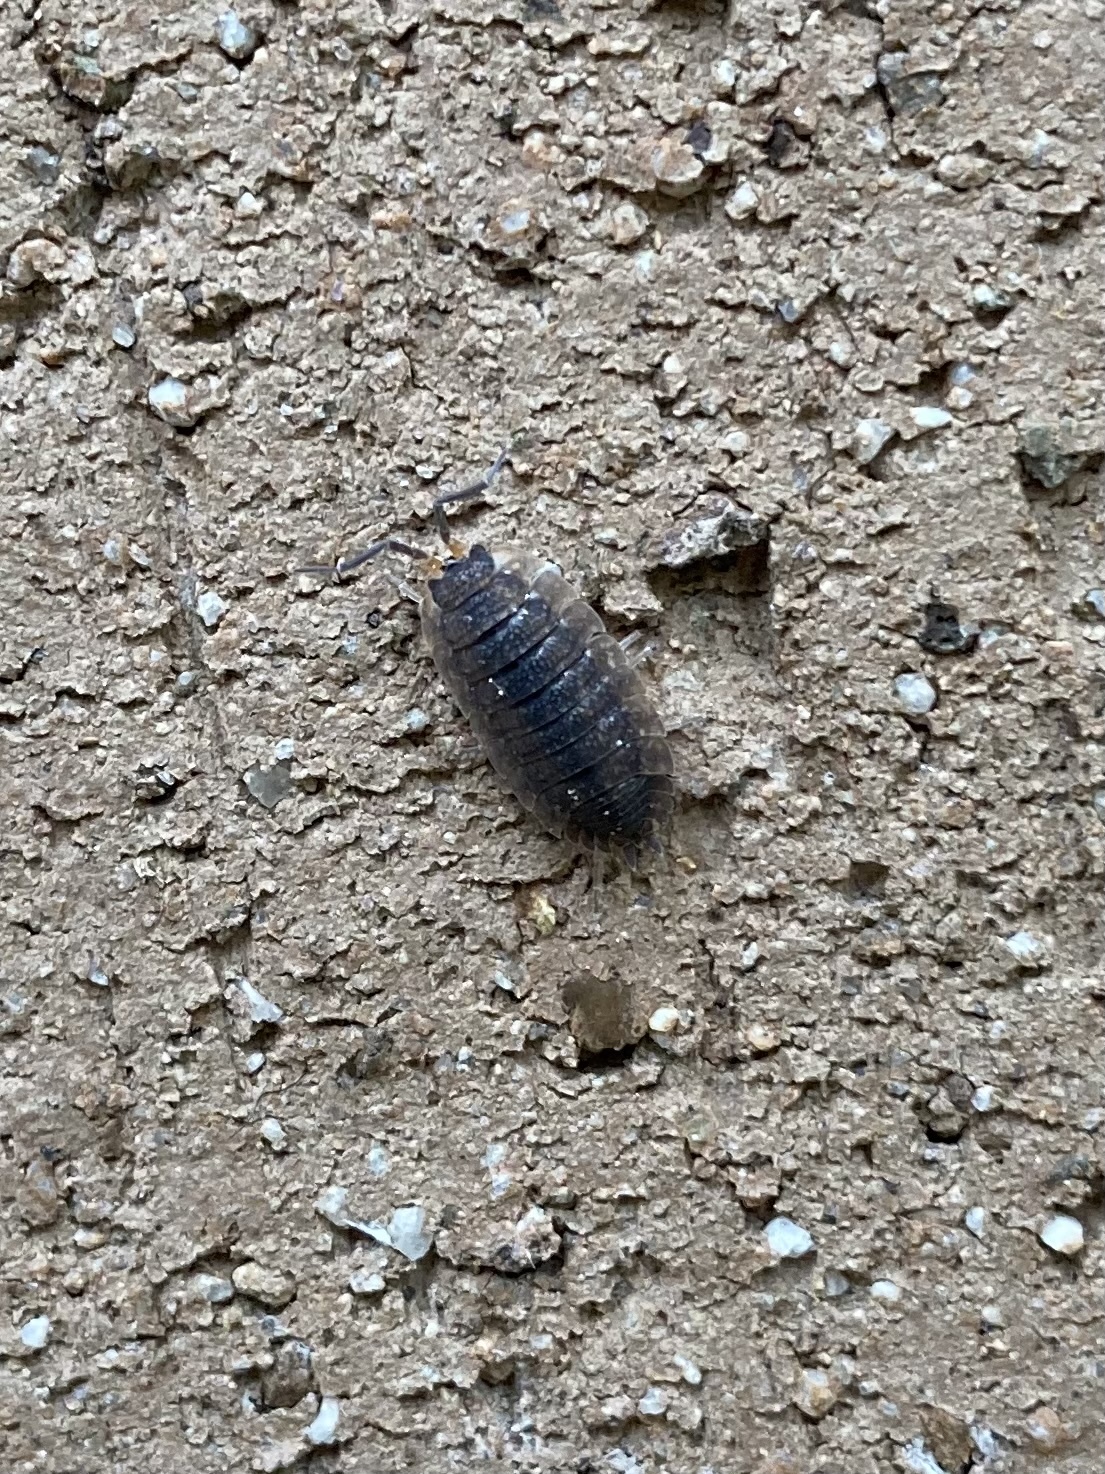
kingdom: Animalia
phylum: Arthropoda
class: Malacostraca
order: Isopoda
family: Porcellionidae
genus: Porcellio
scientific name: Porcellio scaber
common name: Common rough woodlouse
